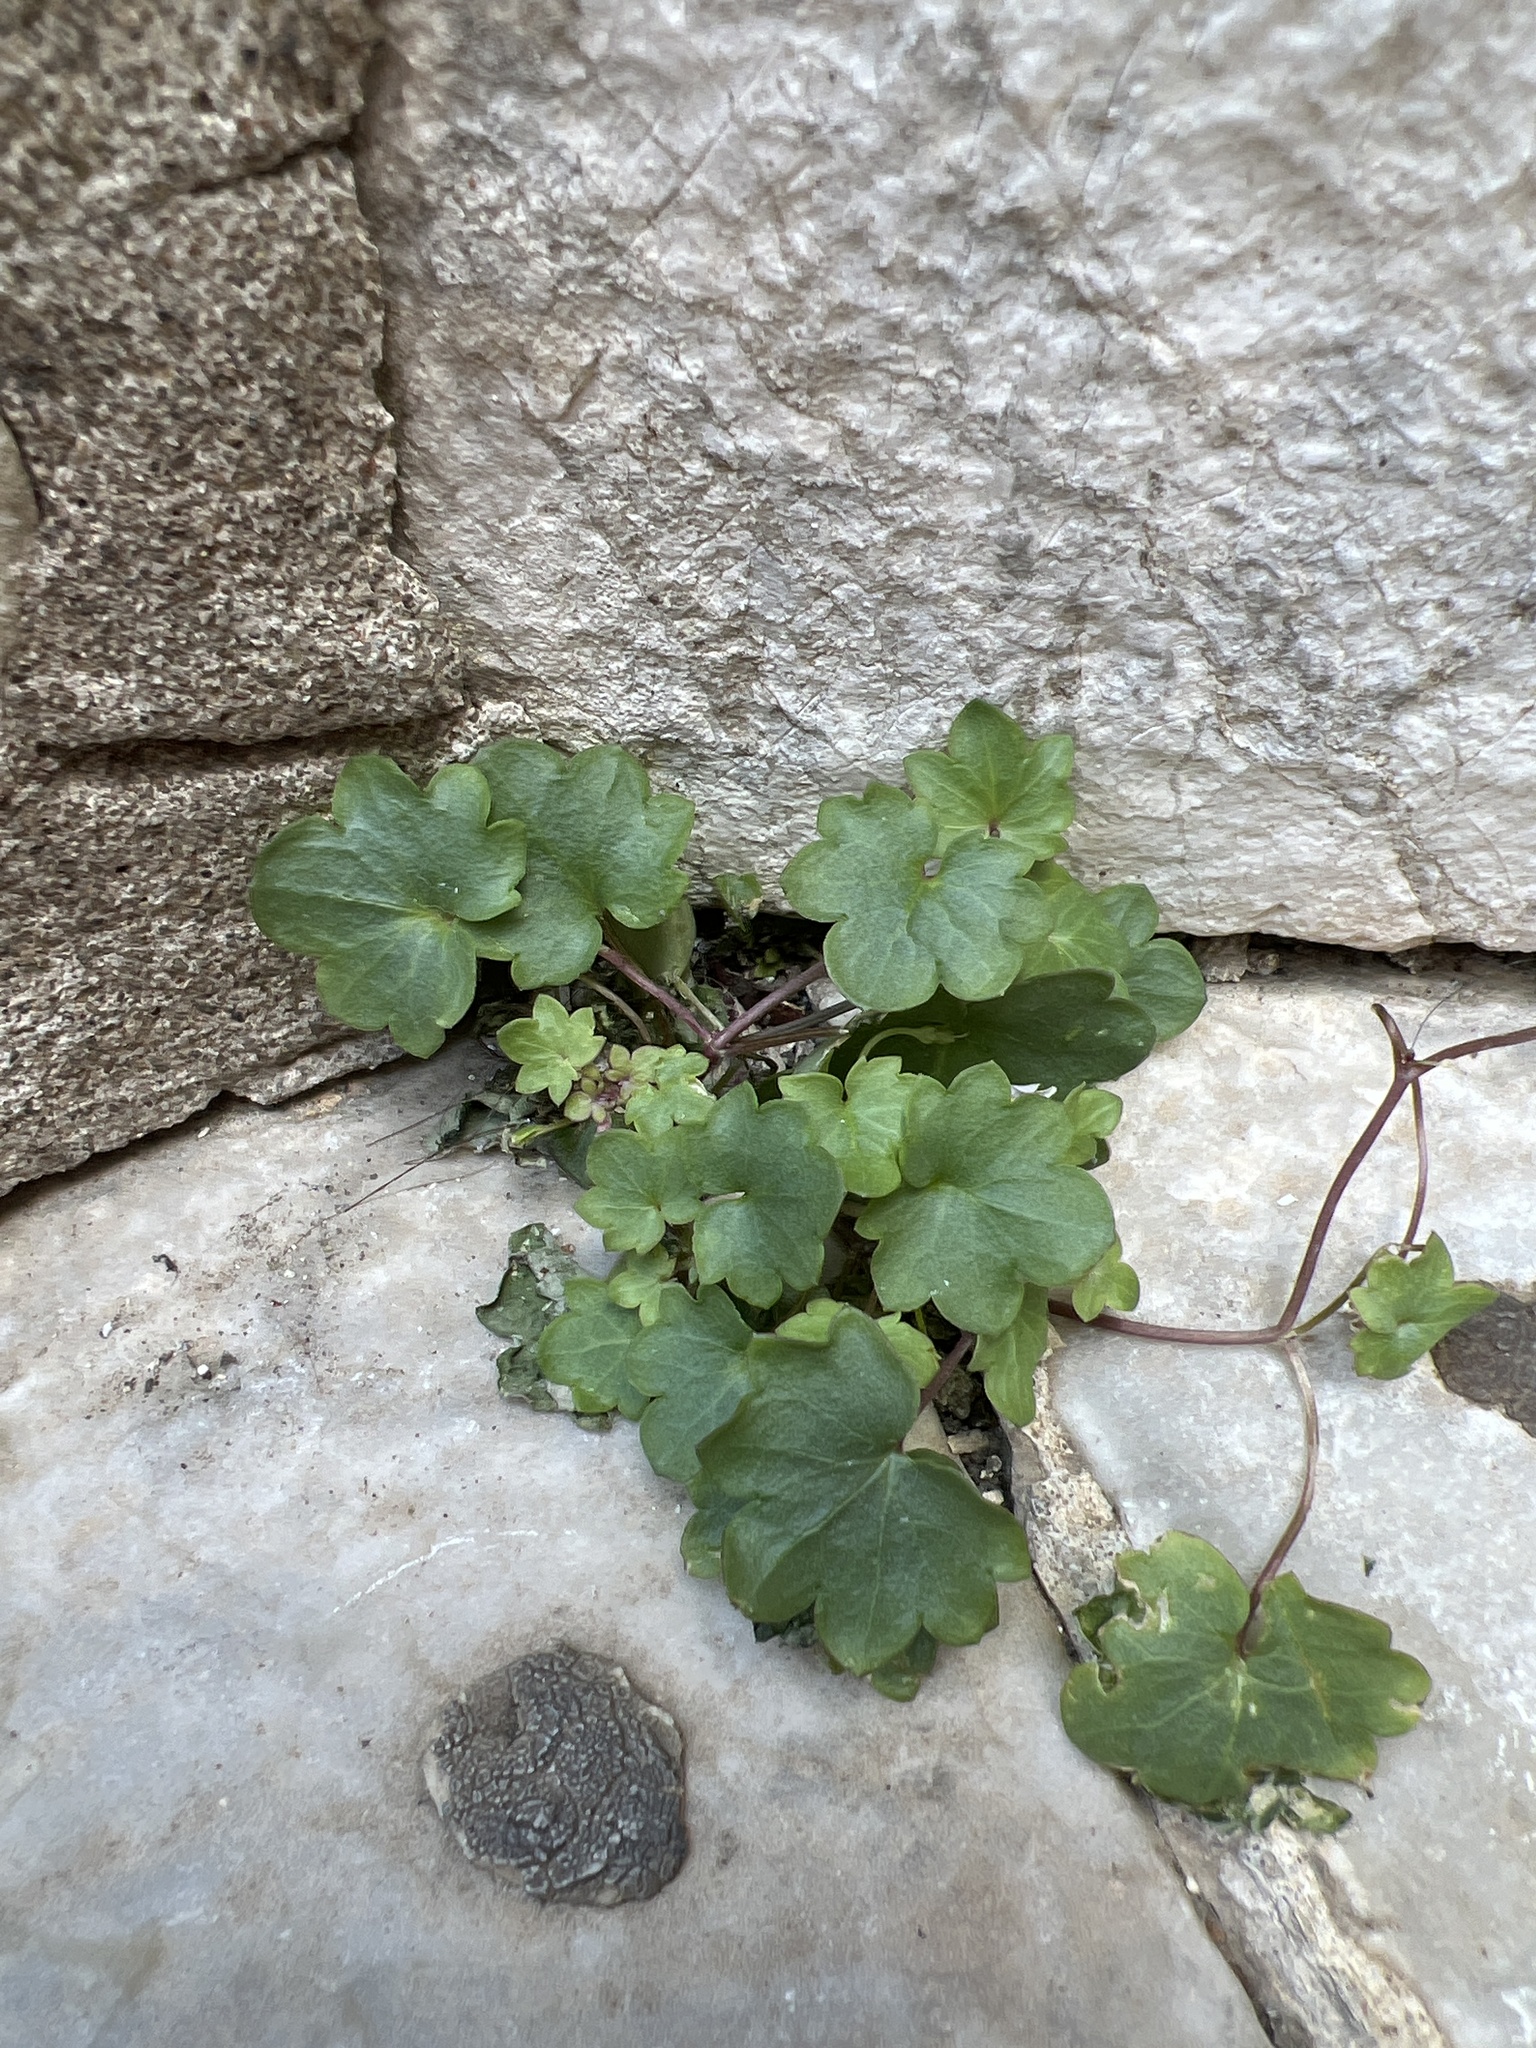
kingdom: Plantae
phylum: Tracheophyta
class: Magnoliopsida
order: Lamiales
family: Plantaginaceae
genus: Cymbalaria
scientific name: Cymbalaria muralis
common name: Ivy-leaved toadflax
